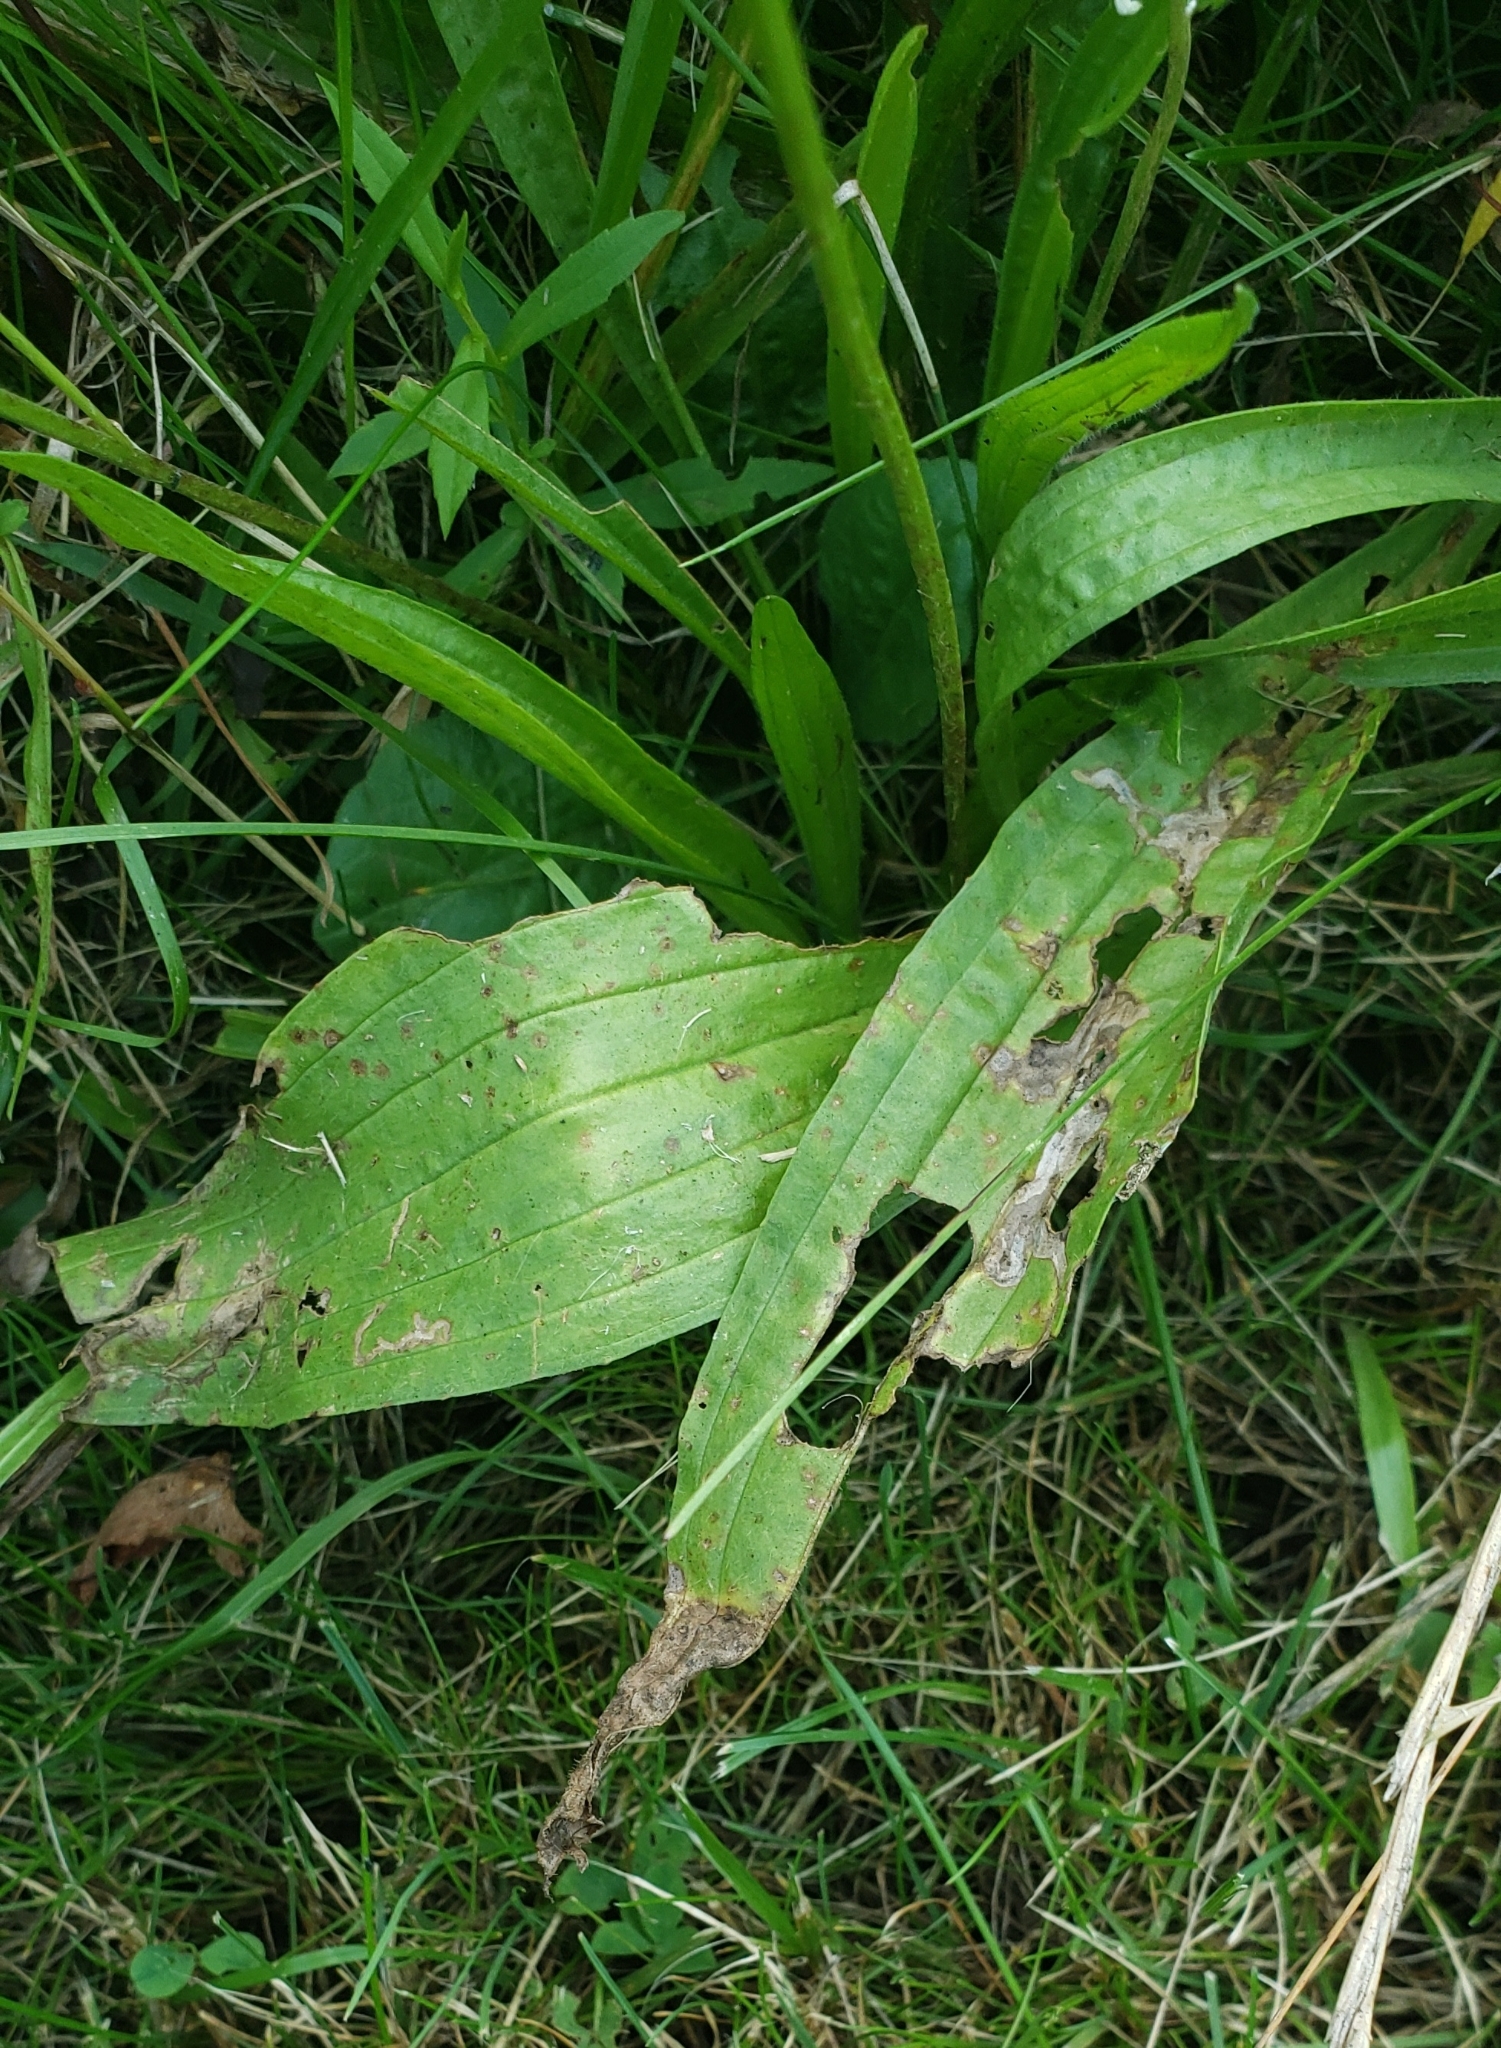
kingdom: Plantae
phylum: Tracheophyta
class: Magnoliopsida
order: Lamiales
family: Plantaginaceae
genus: Plantago
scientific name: Plantago lanceolata
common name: Ribwort plantain
